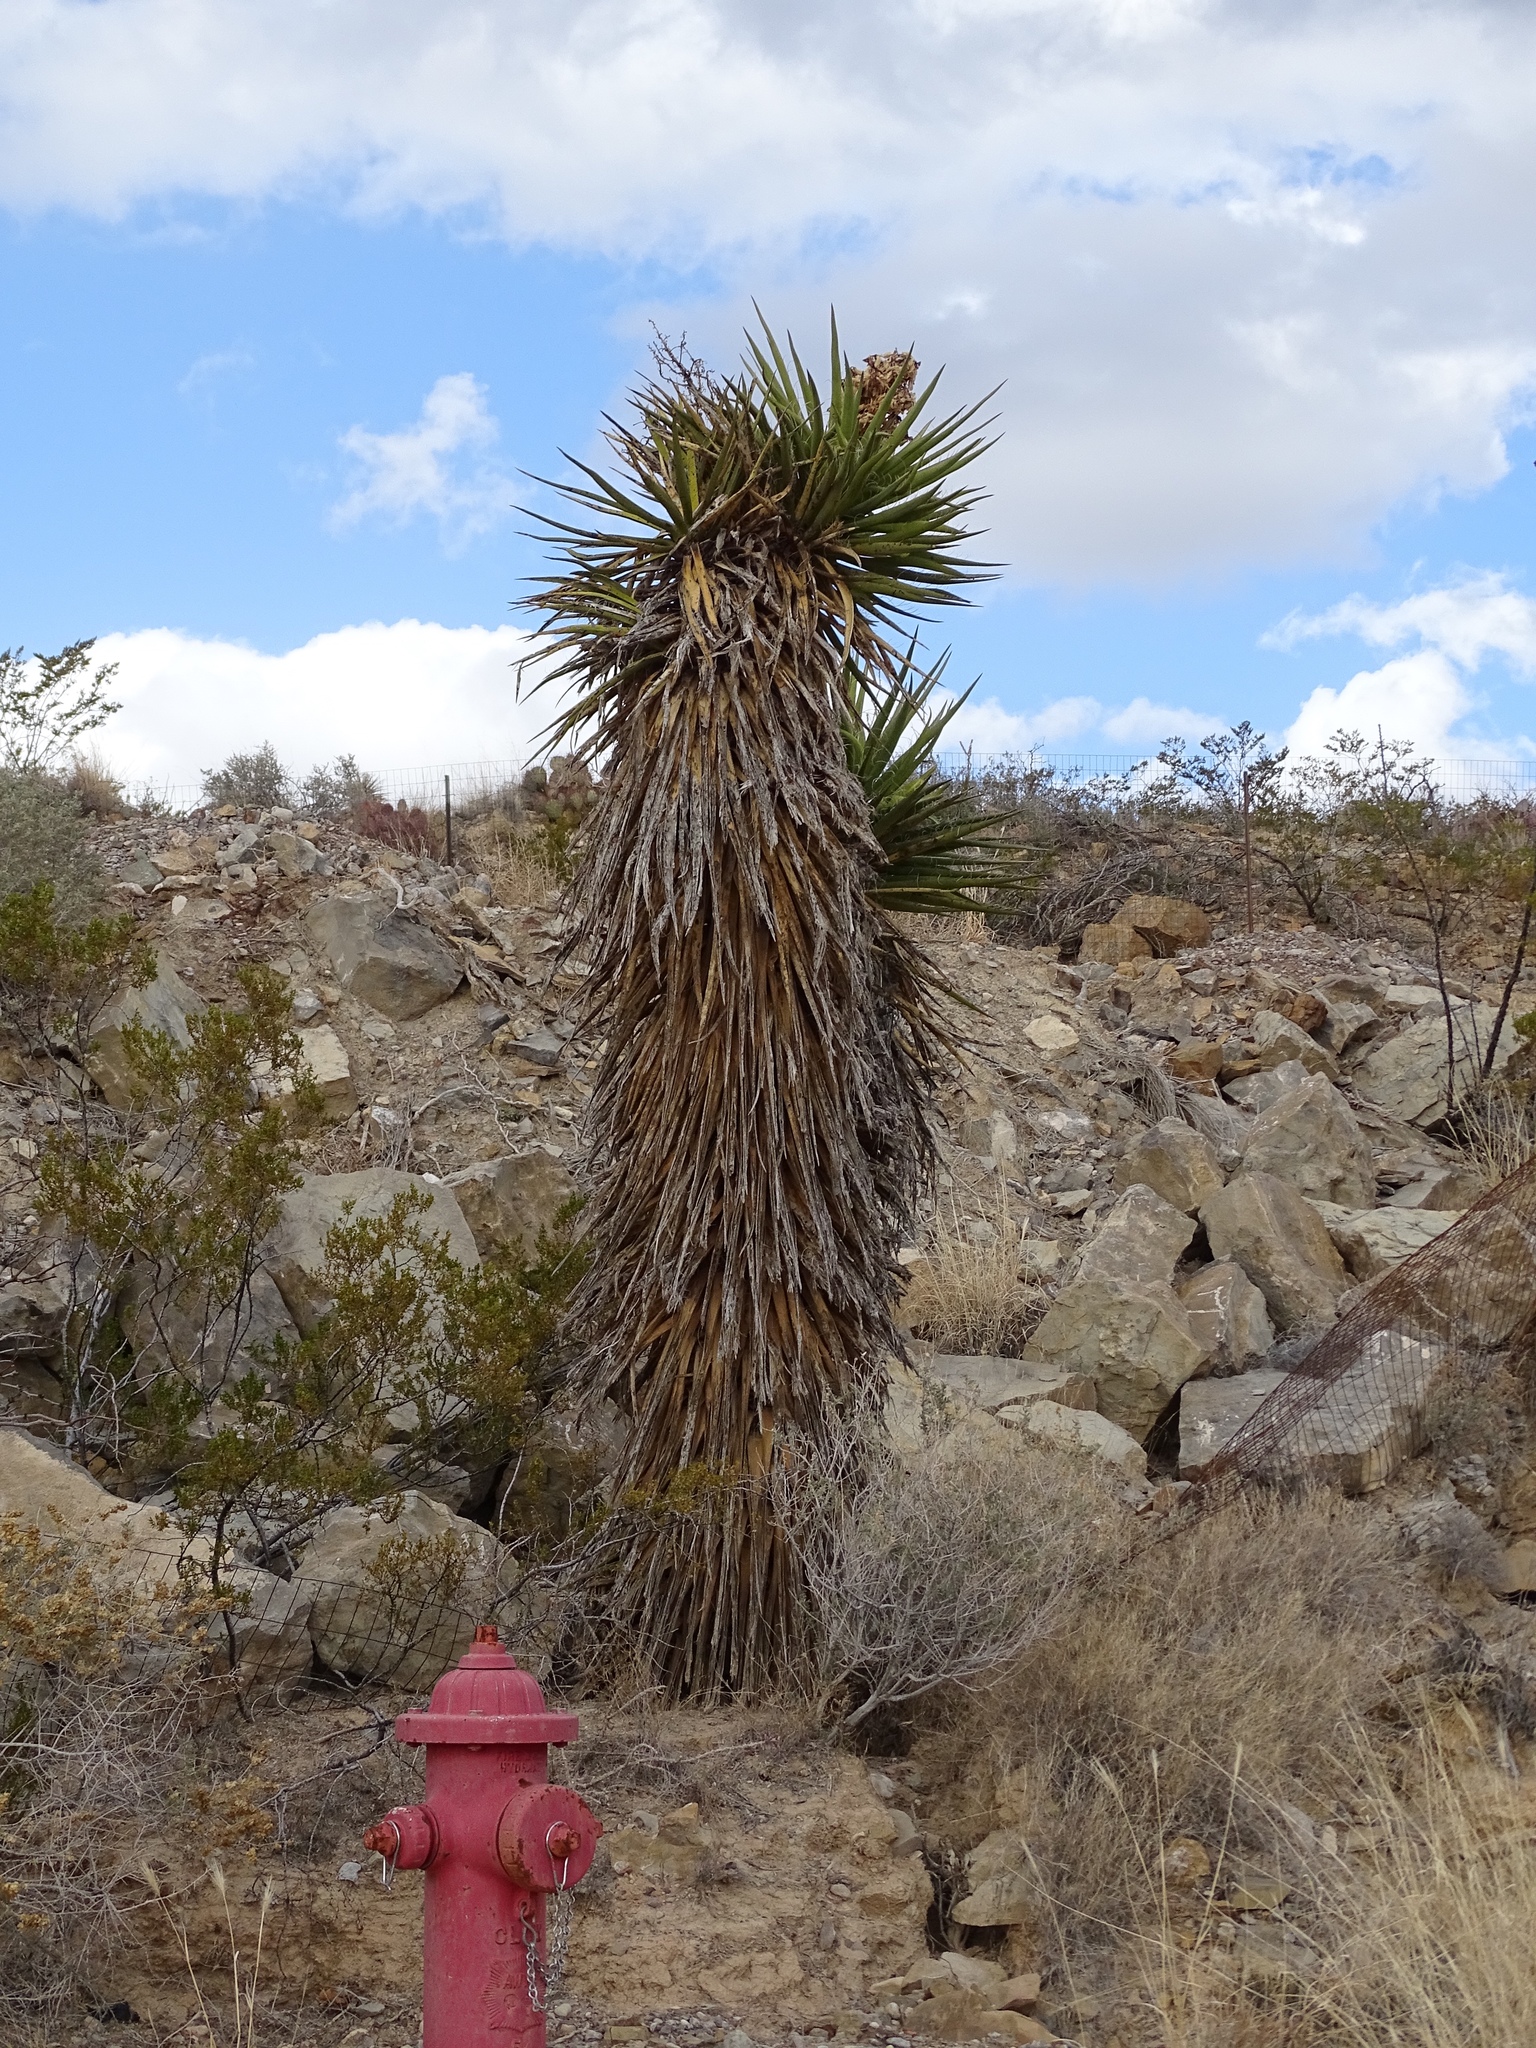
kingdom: Plantae
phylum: Tracheophyta
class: Liliopsida
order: Asparagales
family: Asparagaceae
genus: Yucca
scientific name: Yucca treculiana
